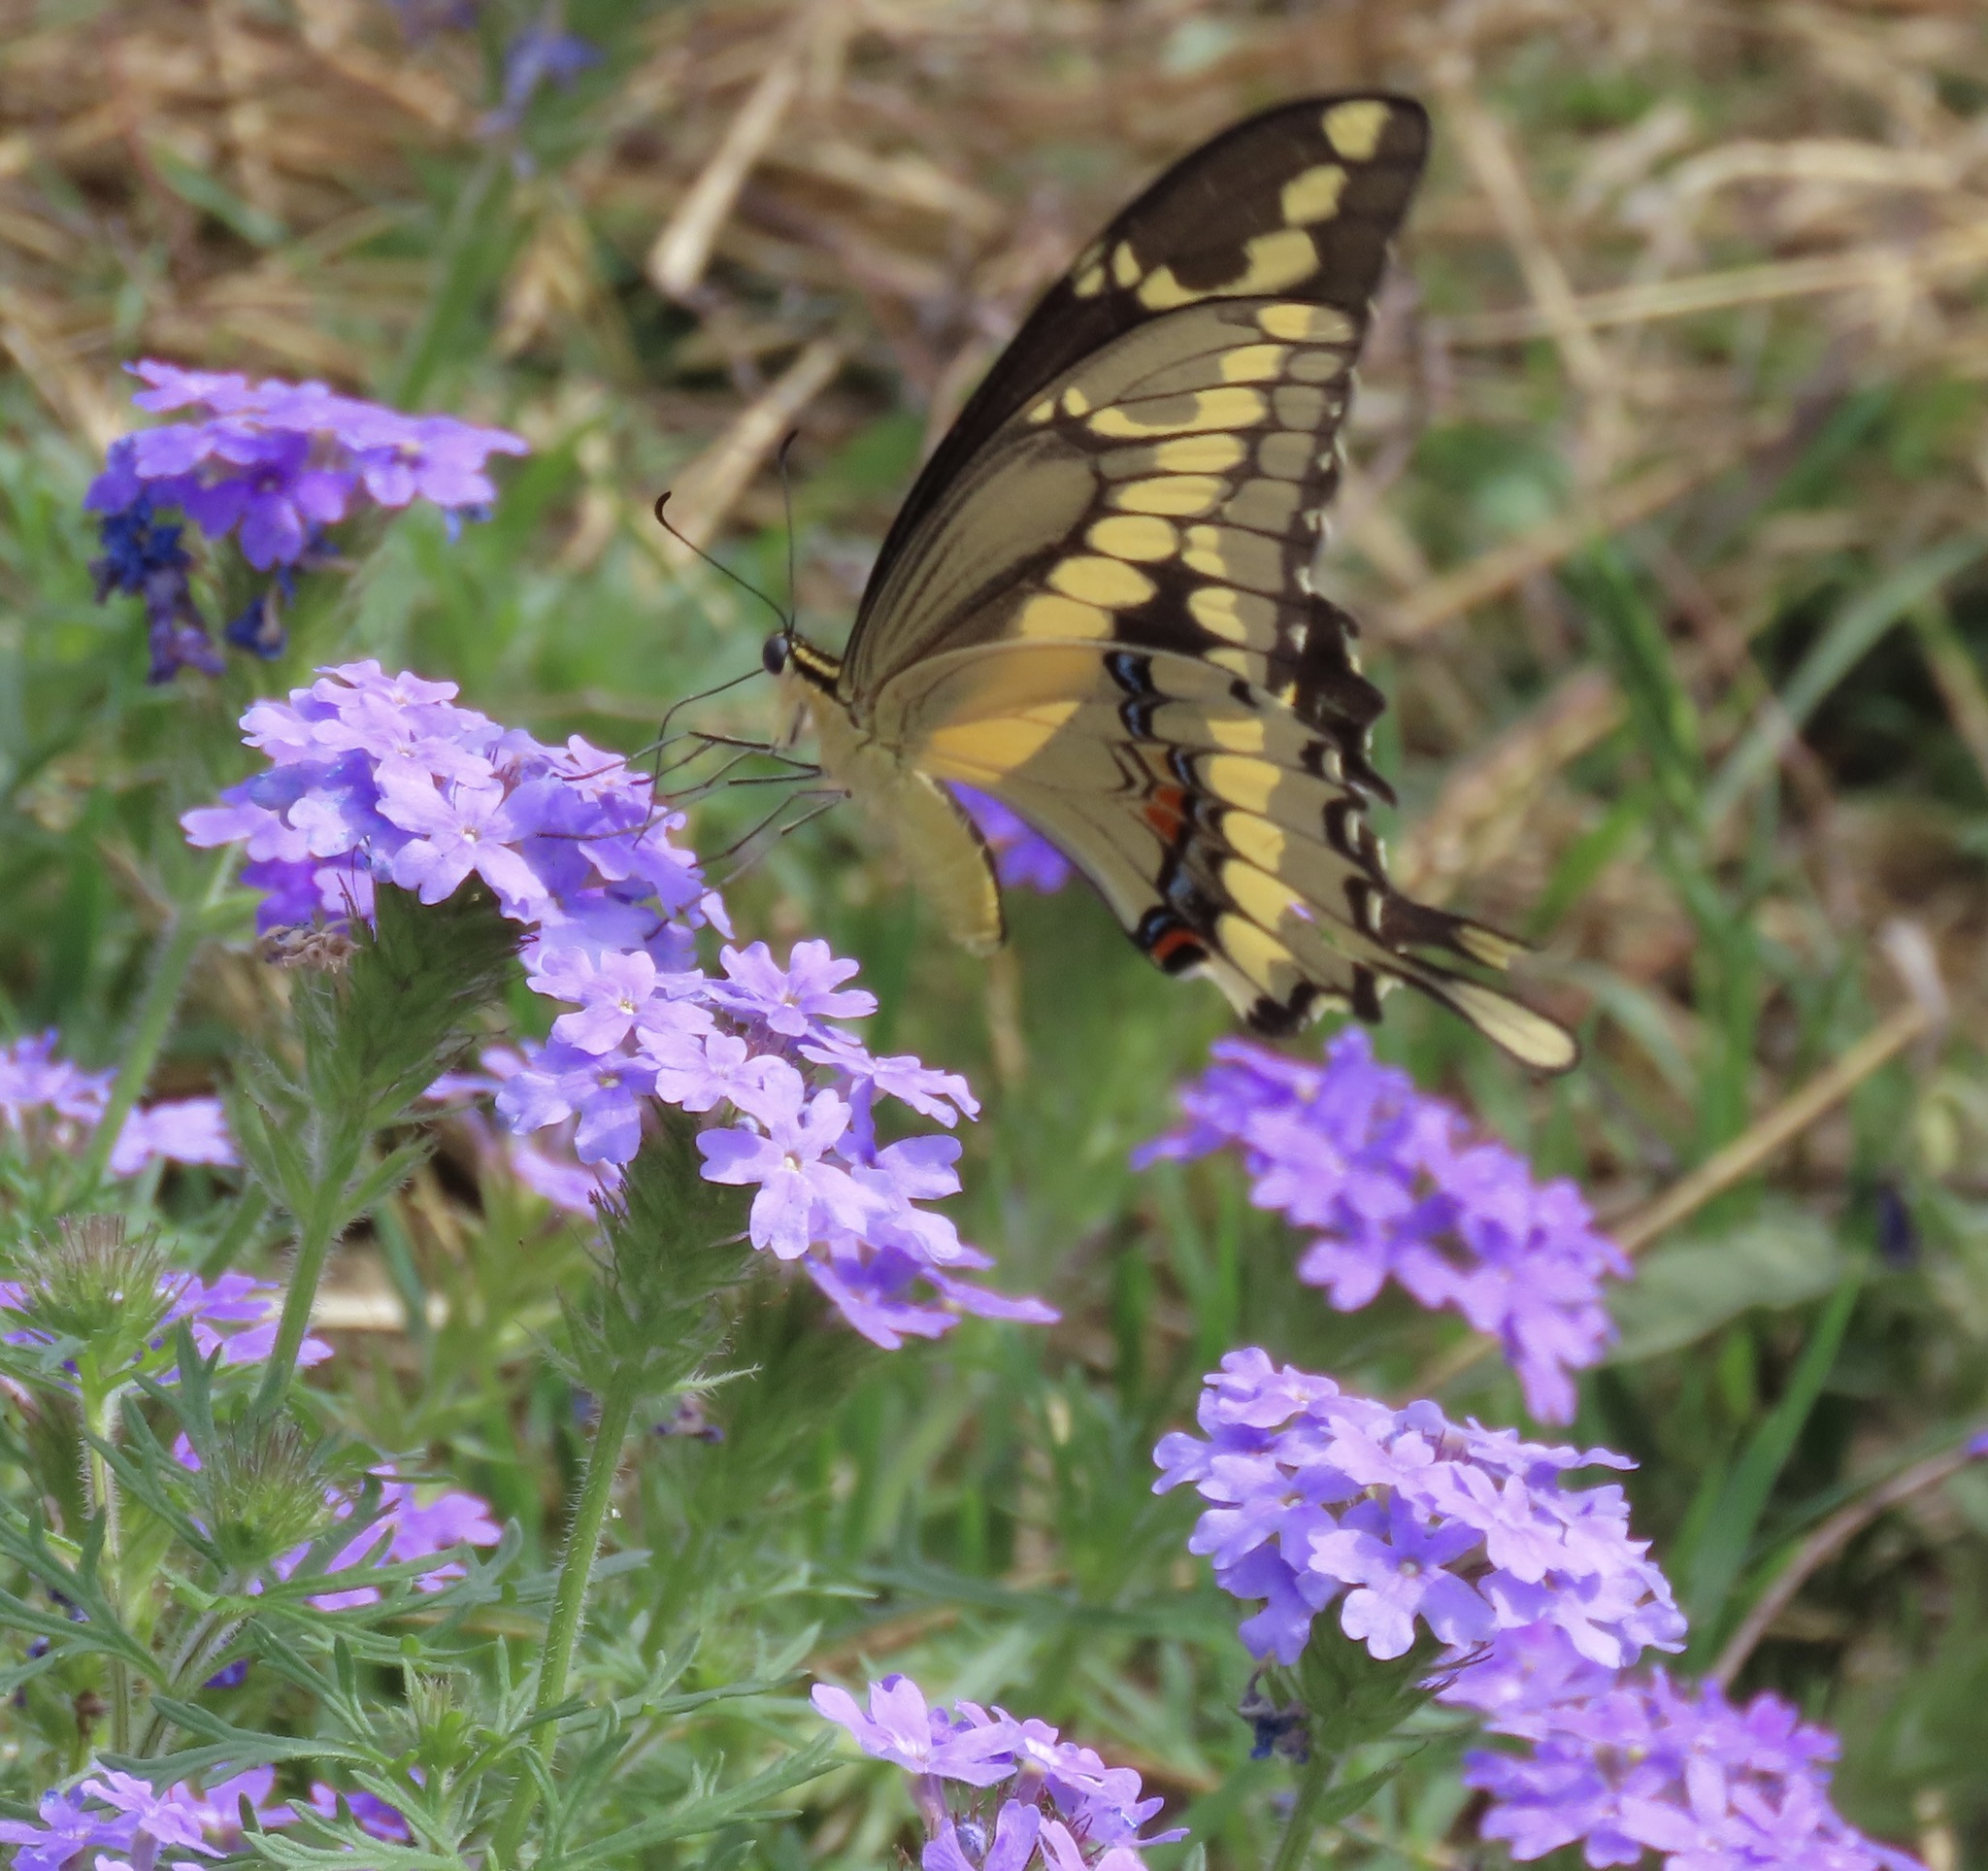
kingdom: Animalia
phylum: Arthropoda
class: Insecta
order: Lepidoptera
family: Papilionidae
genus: Papilio
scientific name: Papilio rumiko
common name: Western giant swallowtail
